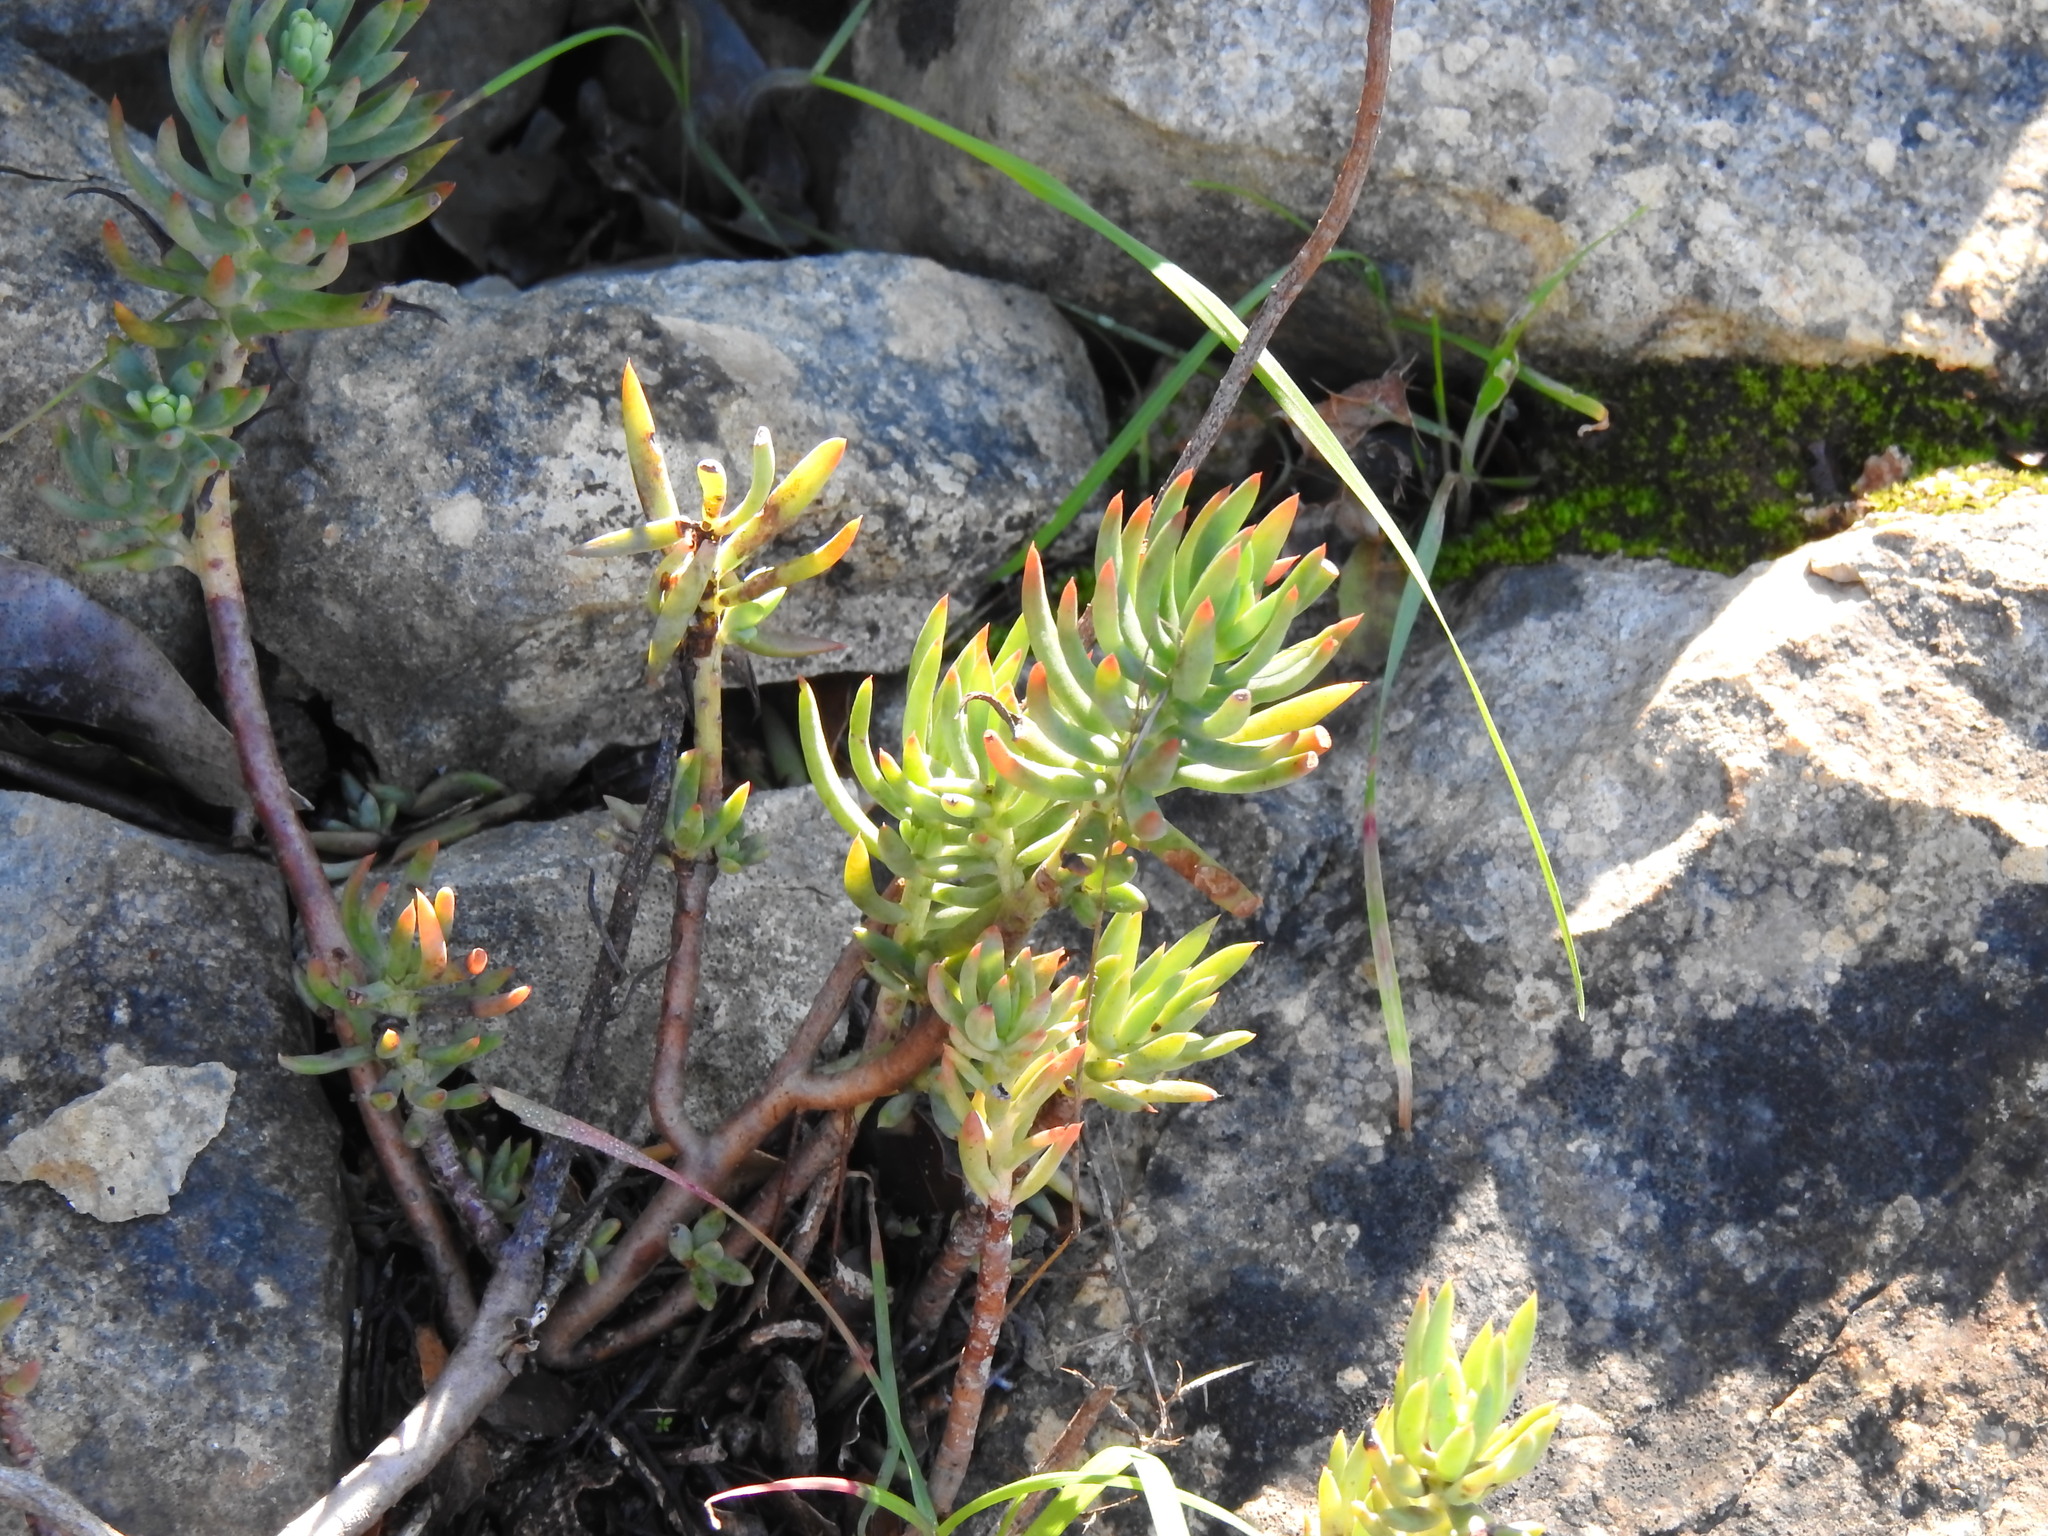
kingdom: Plantae
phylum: Tracheophyta
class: Magnoliopsida
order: Saxifragales
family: Crassulaceae
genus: Petrosedum
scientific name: Petrosedum sediforme
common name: Pale stonecrop
